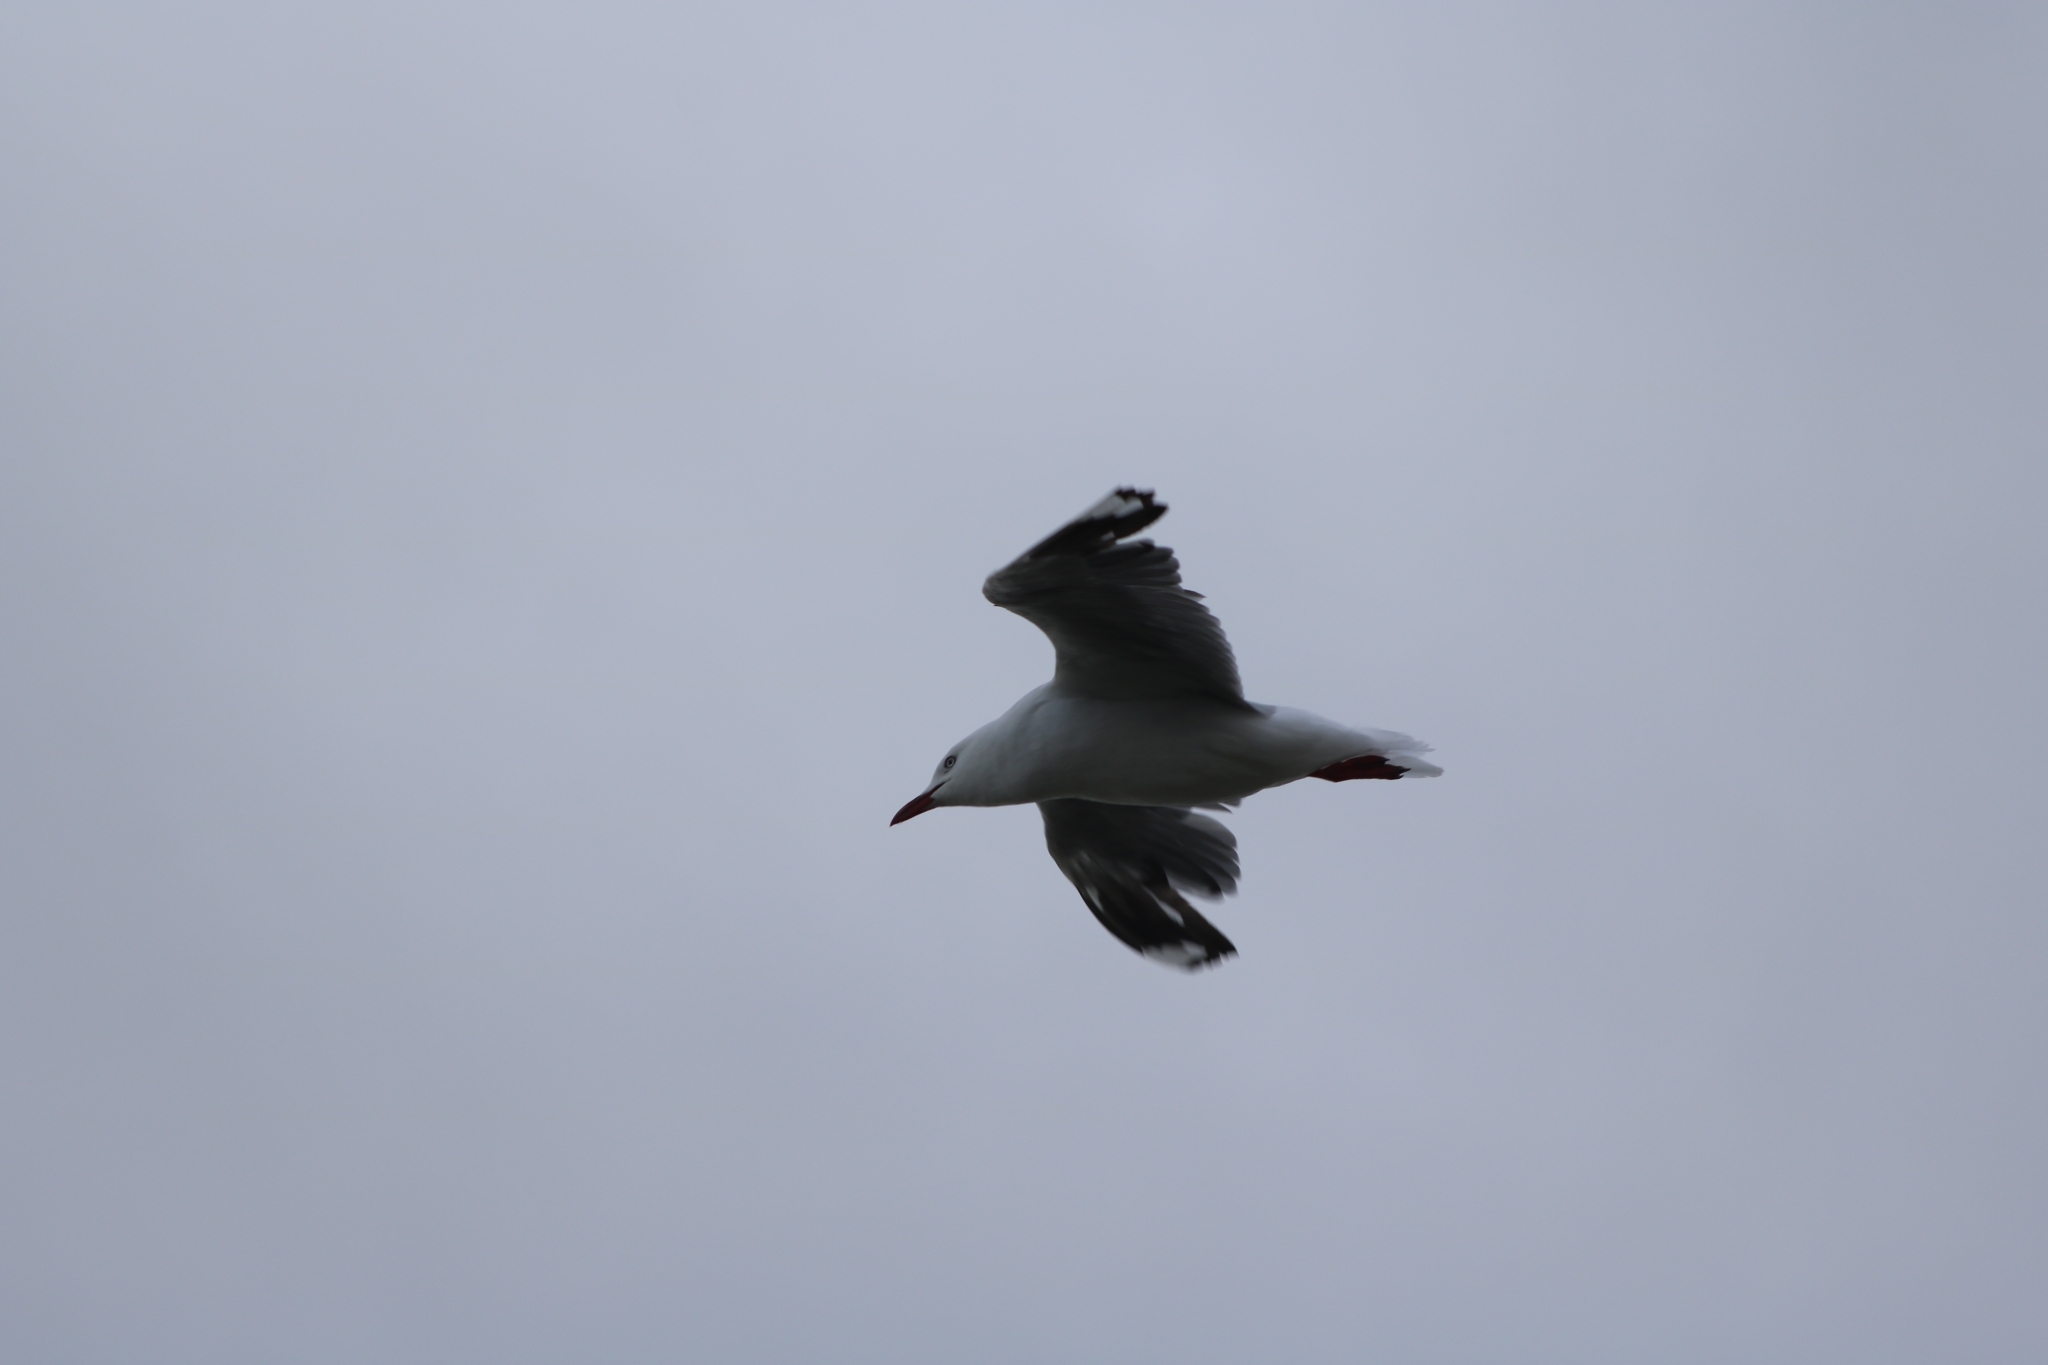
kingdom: Animalia
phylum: Chordata
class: Aves
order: Charadriiformes
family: Laridae
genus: Chroicocephalus
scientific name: Chroicocephalus novaehollandiae
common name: Silver gull
